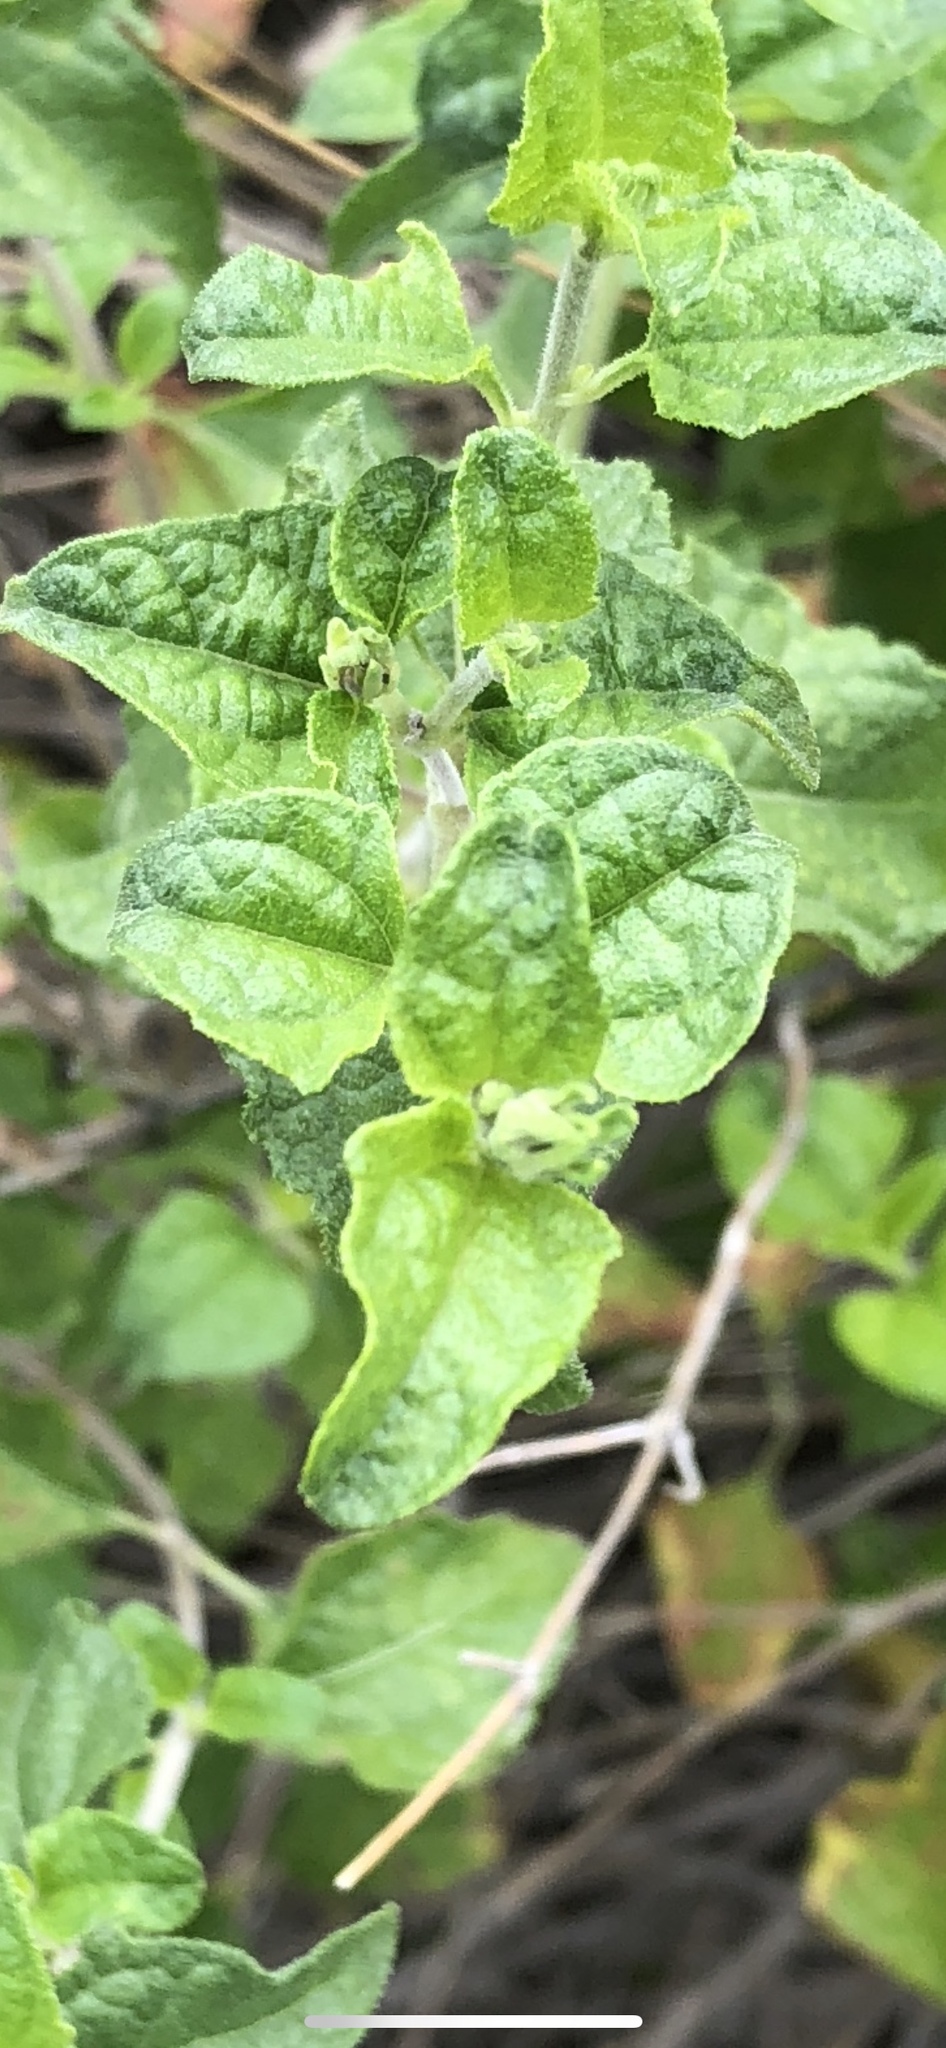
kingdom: Plantae
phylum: Tracheophyta
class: Magnoliopsida
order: Asterales
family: Asteraceae
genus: Bahiopsis
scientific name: Bahiopsis parishii
